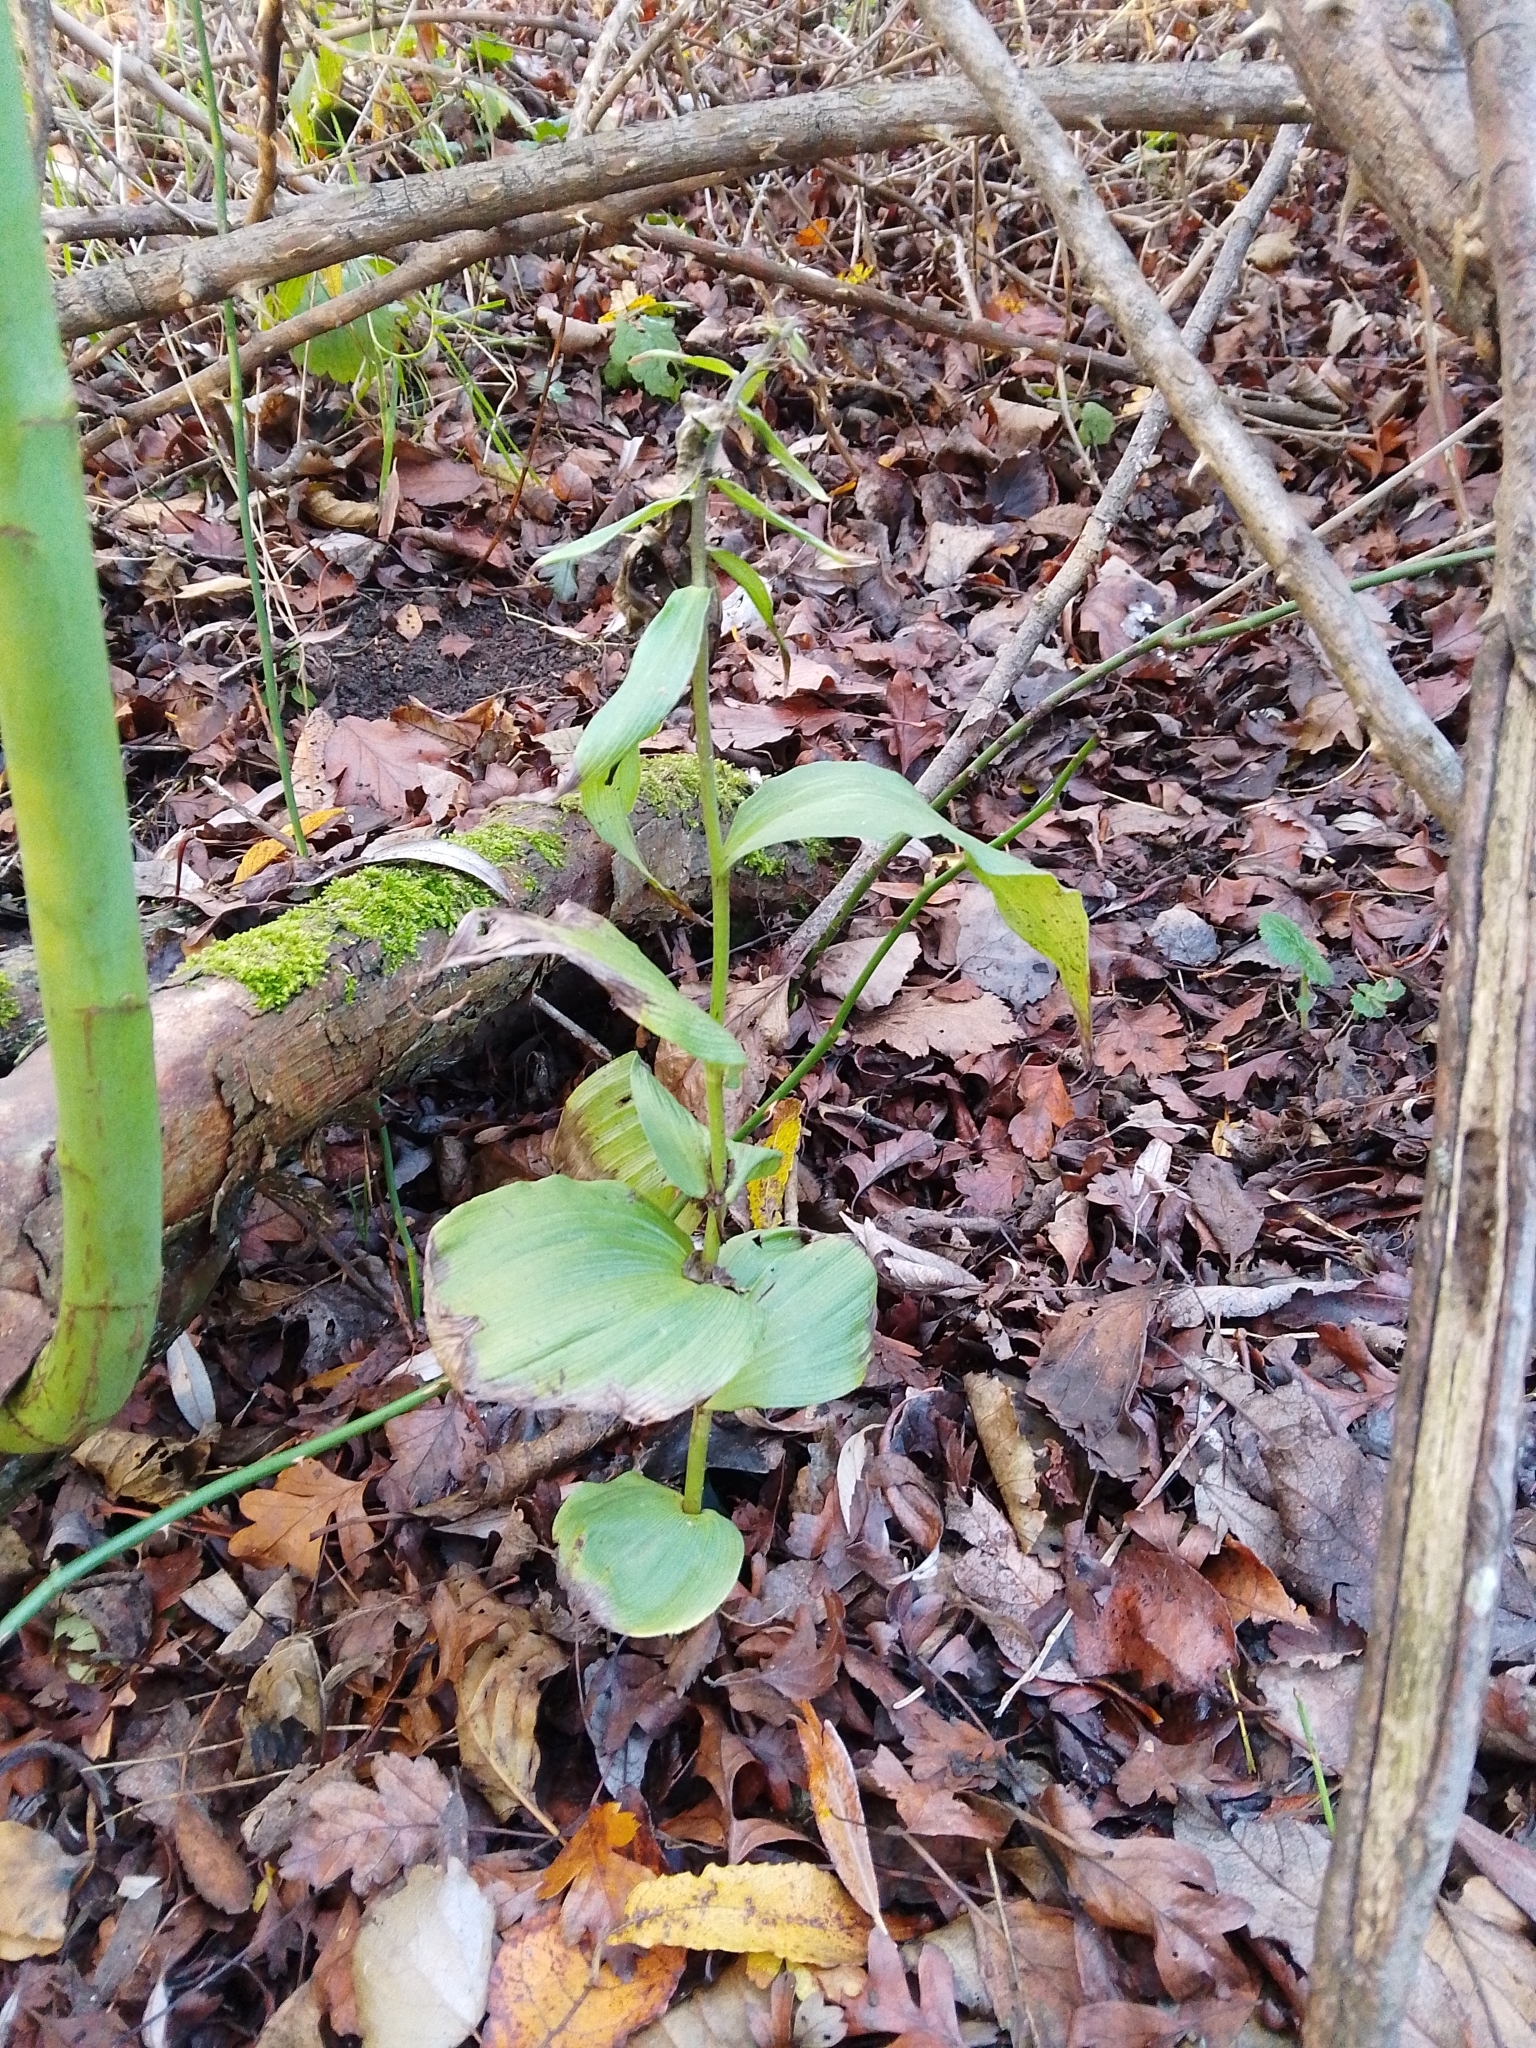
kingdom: Plantae
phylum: Tracheophyta
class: Liliopsida
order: Asparagales
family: Orchidaceae
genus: Epipactis
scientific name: Epipactis helleborine
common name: Broad-leaved helleborine
